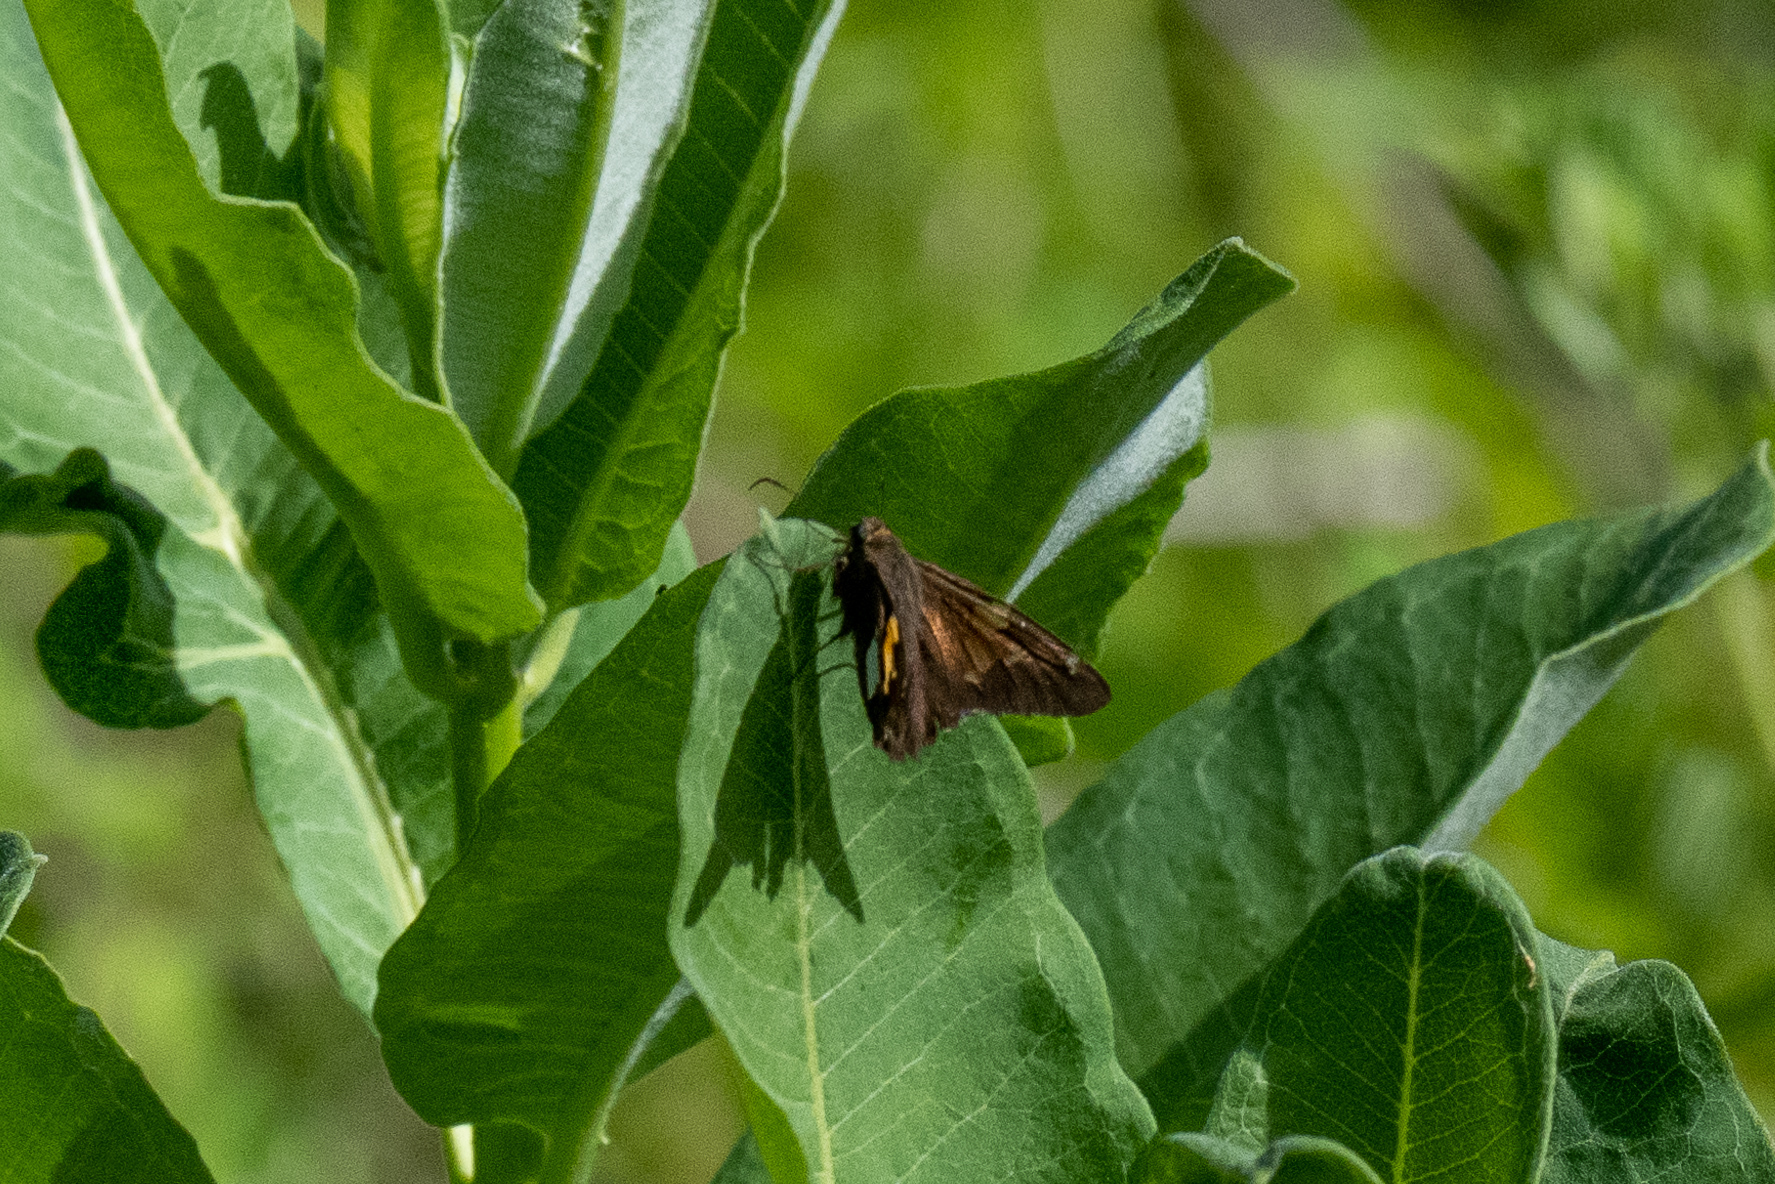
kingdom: Animalia
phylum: Arthropoda
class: Insecta
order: Lepidoptera
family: Hesperiidae
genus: Epargyreus
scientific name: Epargyreus clarus
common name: Silver-spotted skipper
